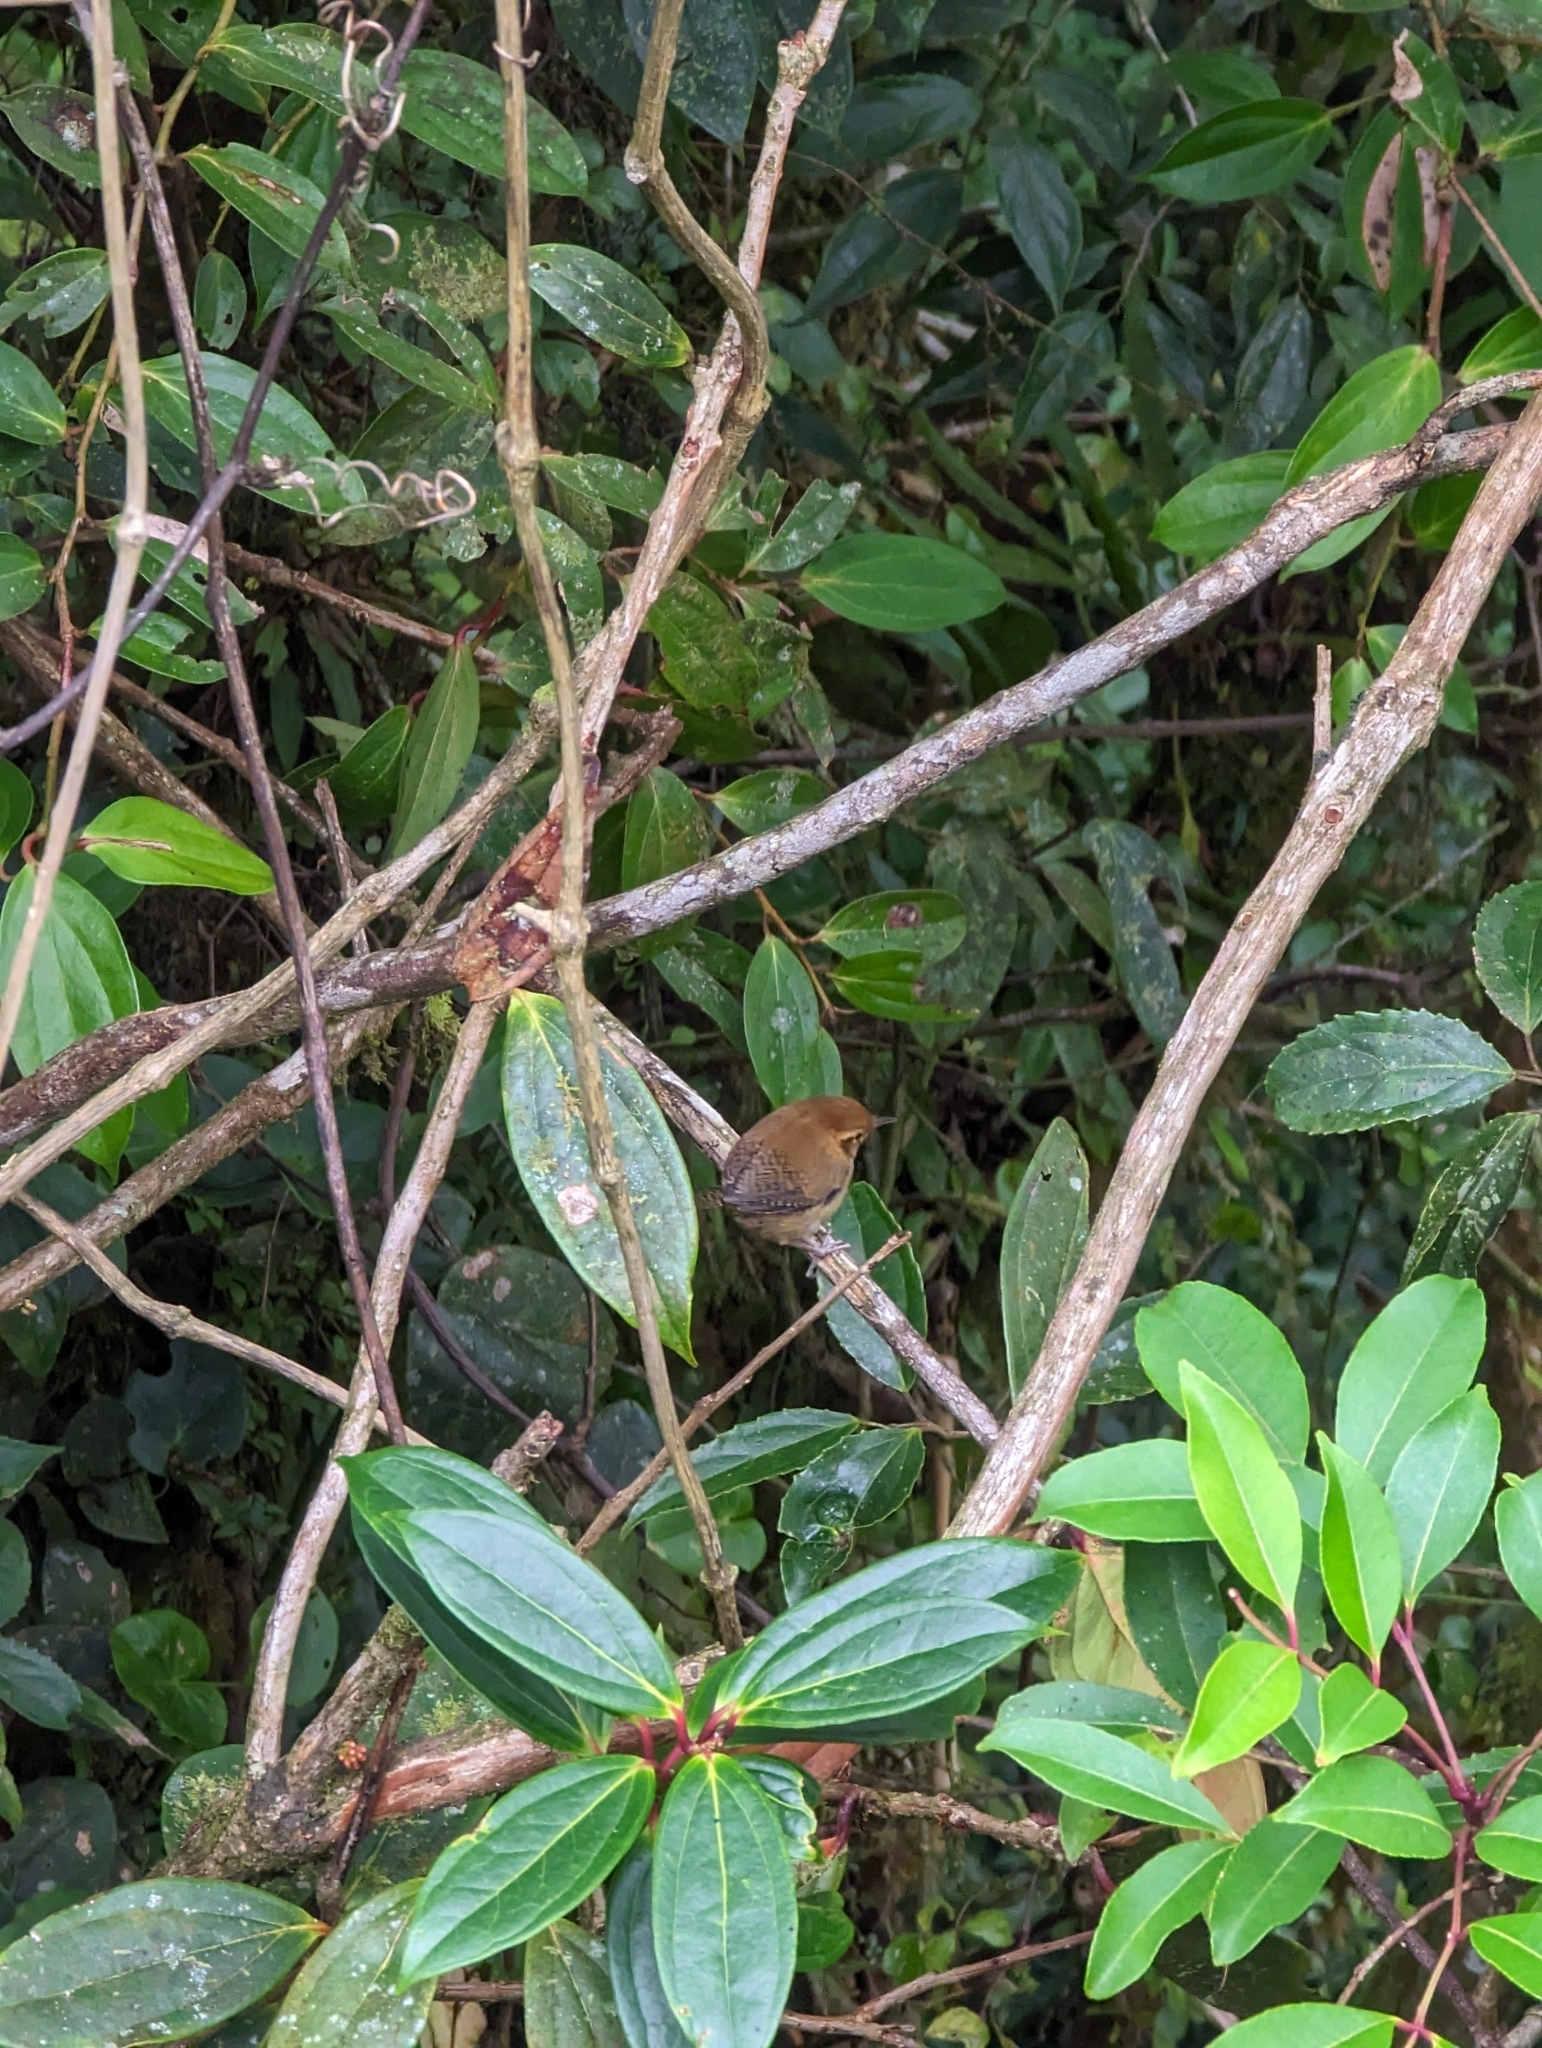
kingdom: Animalia
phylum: Chordata
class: Aves
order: Passeriformes
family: Troglodytidae
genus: Troglodytes
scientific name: Troglodytes ochraceus
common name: Ochraceous wren
